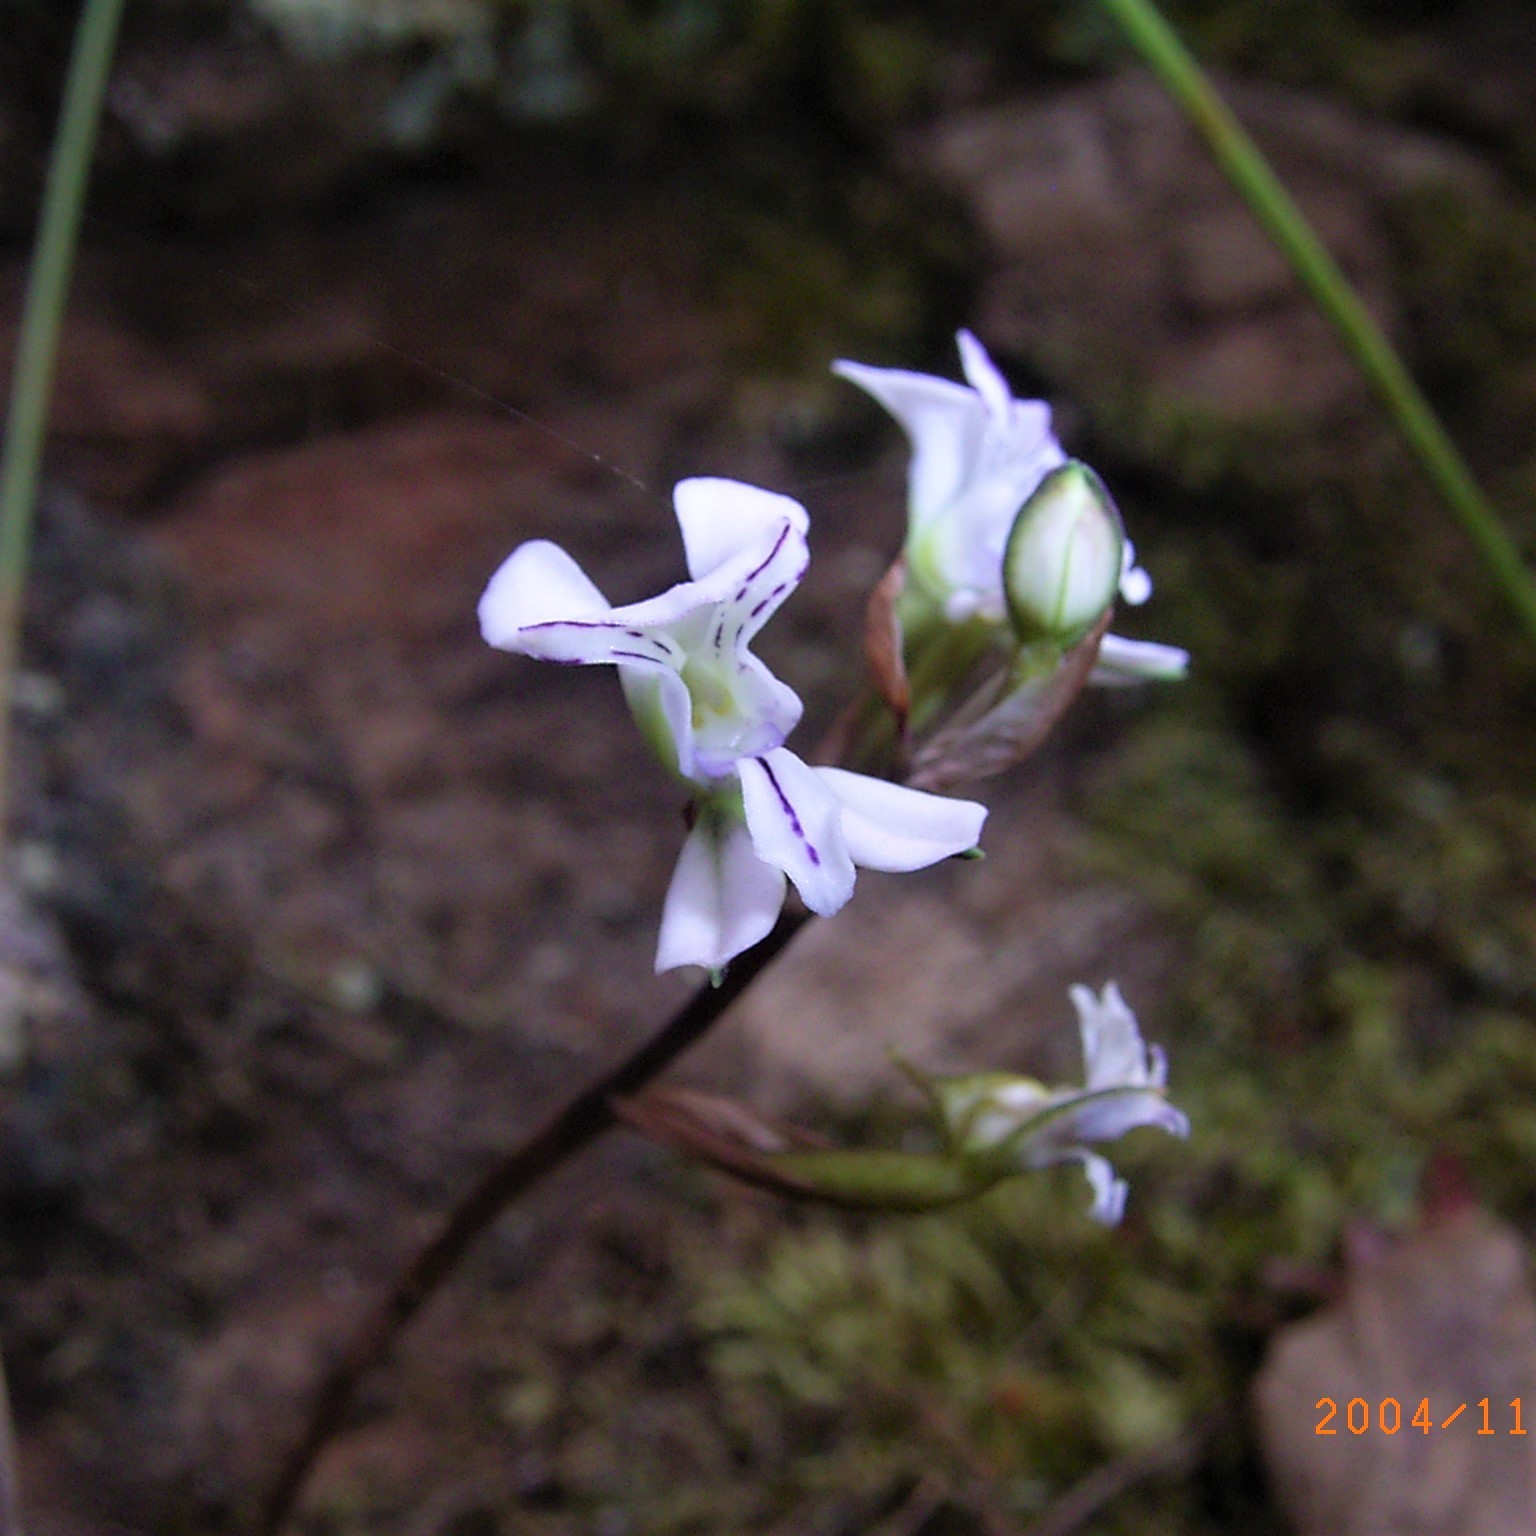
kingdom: Plantae
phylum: Tracheophyta
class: Liliopsida
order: Asparagales
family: Orchidaceae
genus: Disa
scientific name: Disa sagittalis
